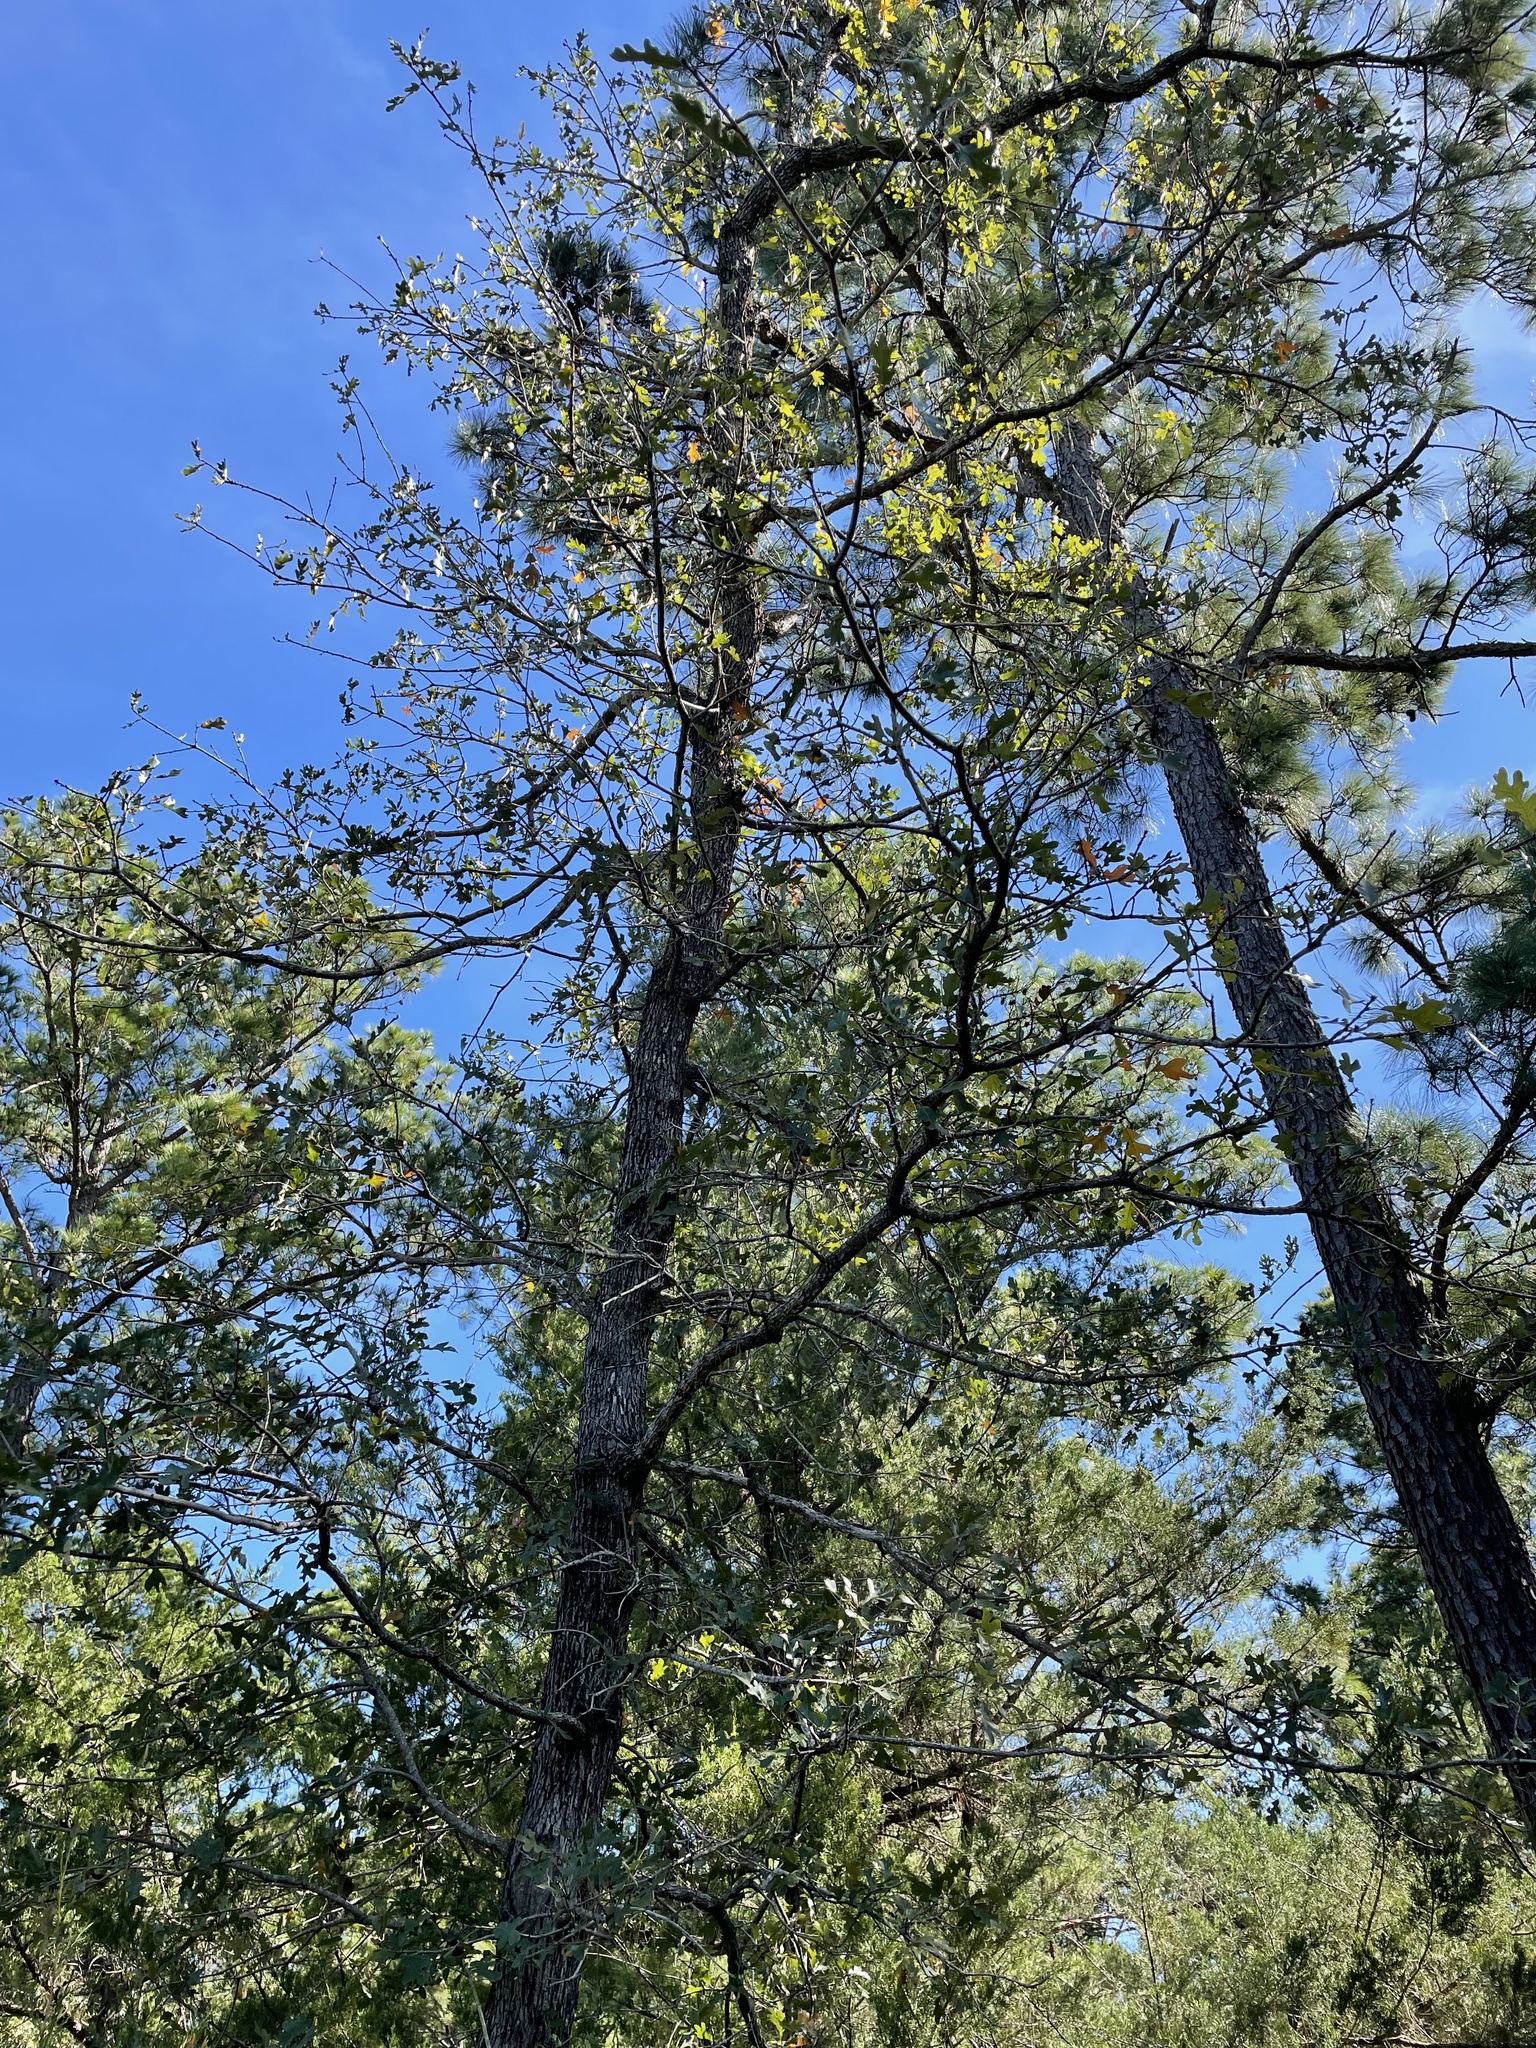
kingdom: Plantae
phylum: Tracheophyta
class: Magnoliopsida
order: Fagales
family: Fagaceae
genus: Quercus
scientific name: Quercus margaretiae
